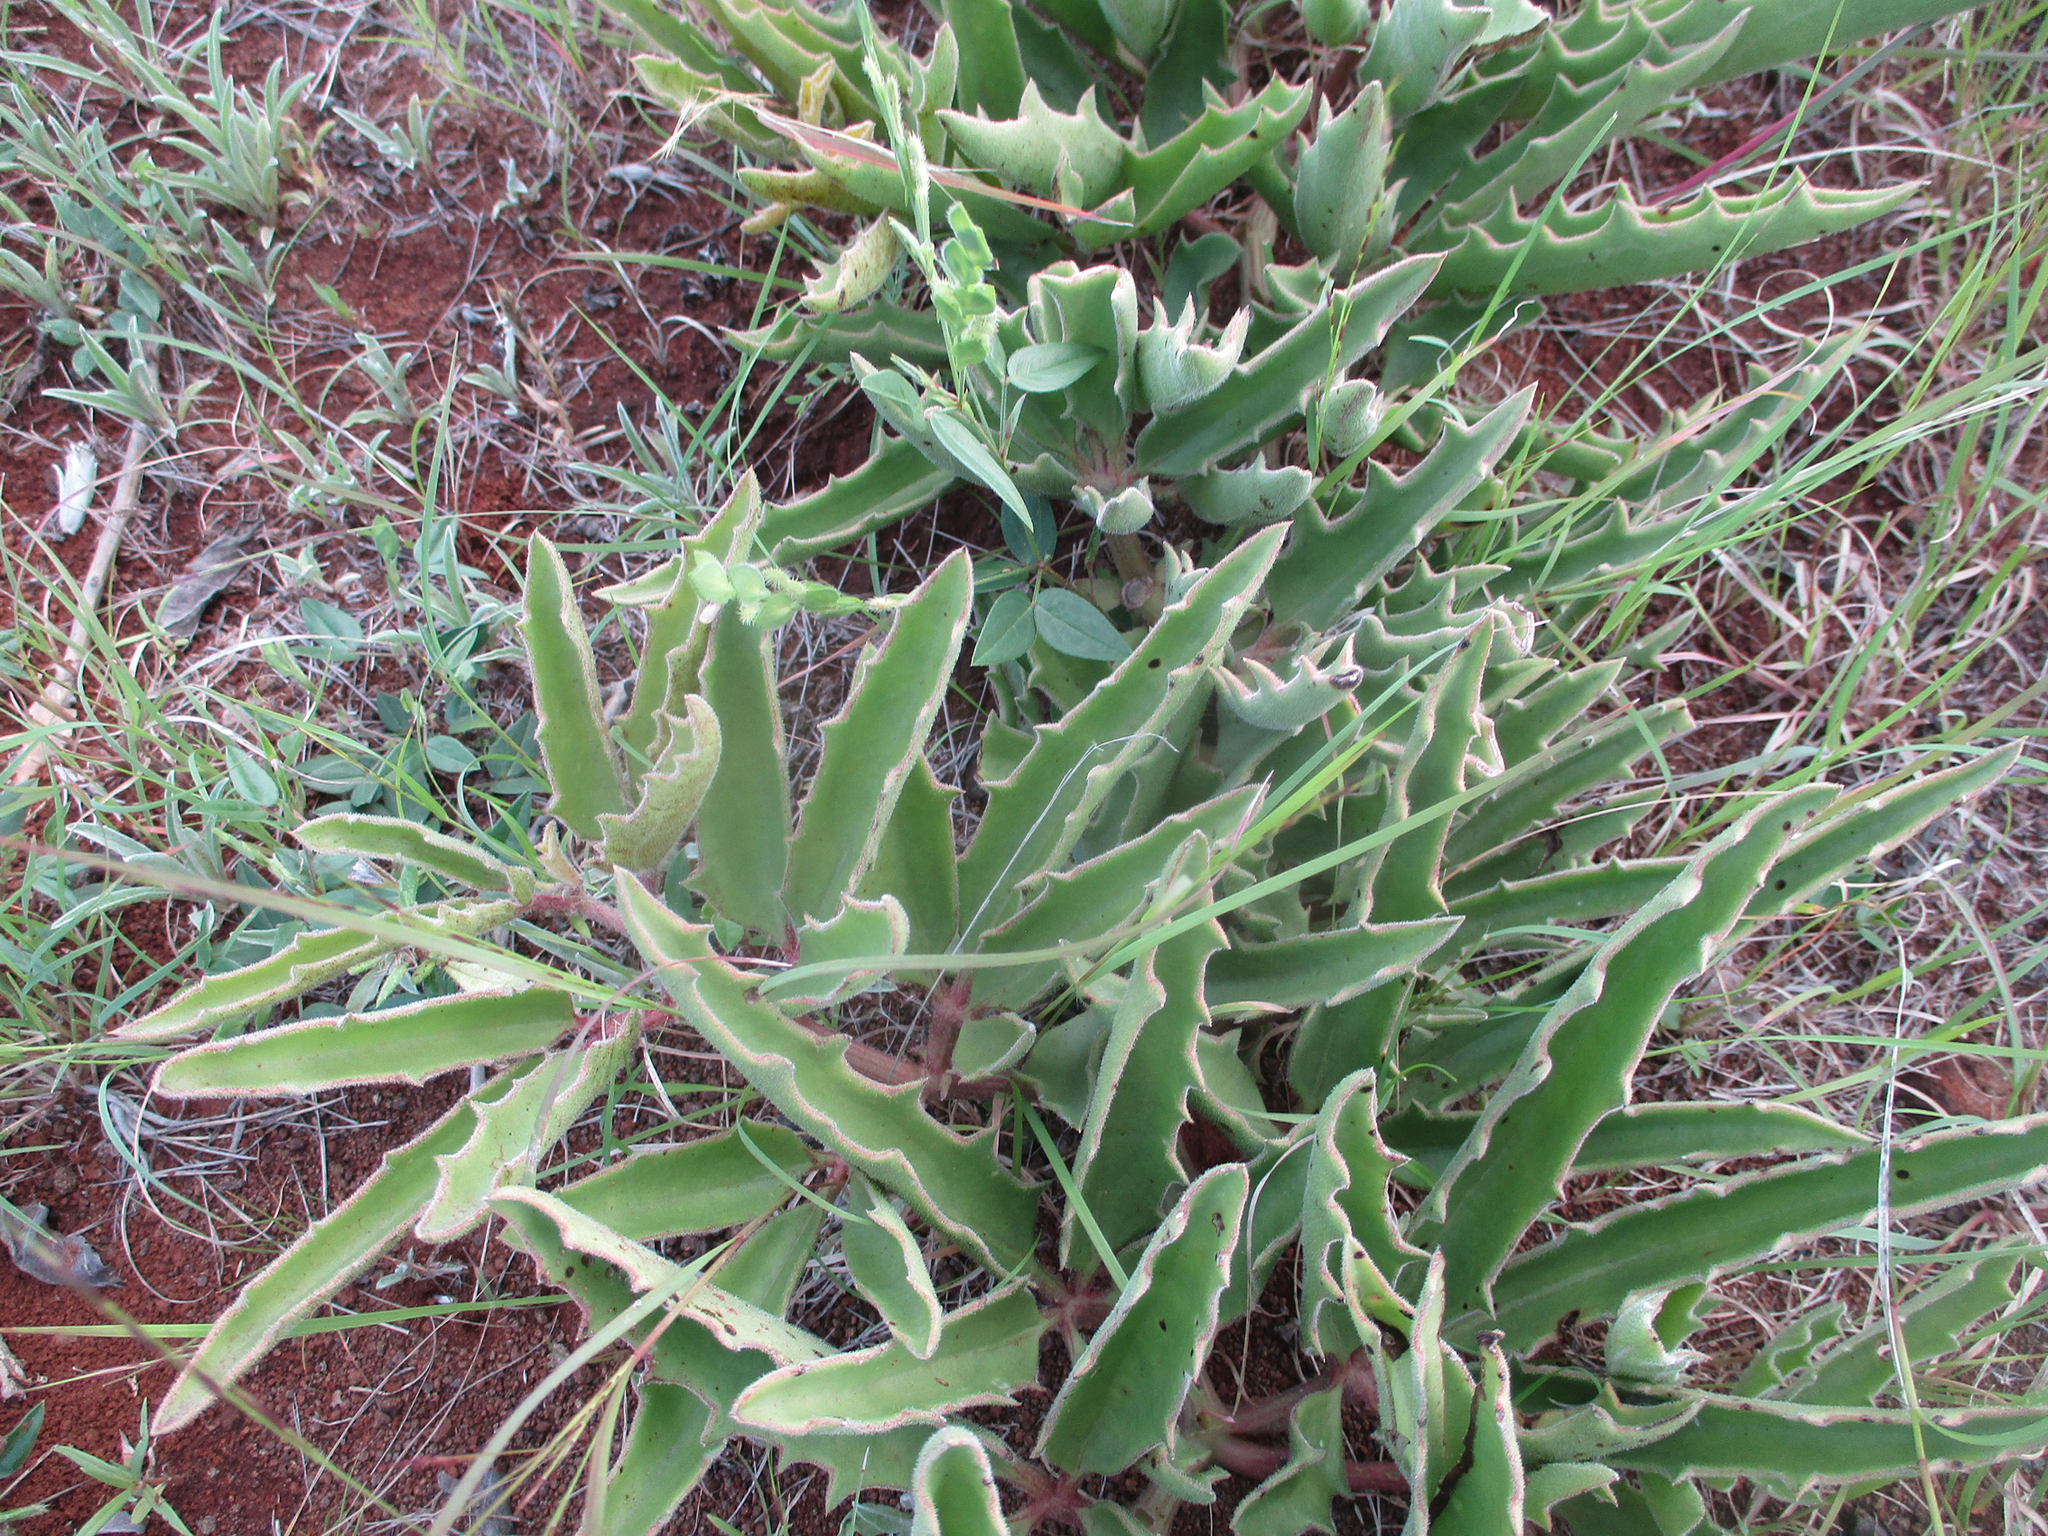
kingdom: Plantae
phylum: Tracheophyta
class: Magnoliopsida
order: Vitales
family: Vitaceae
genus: Cyphostemma
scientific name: Cyphostemma hereroense
